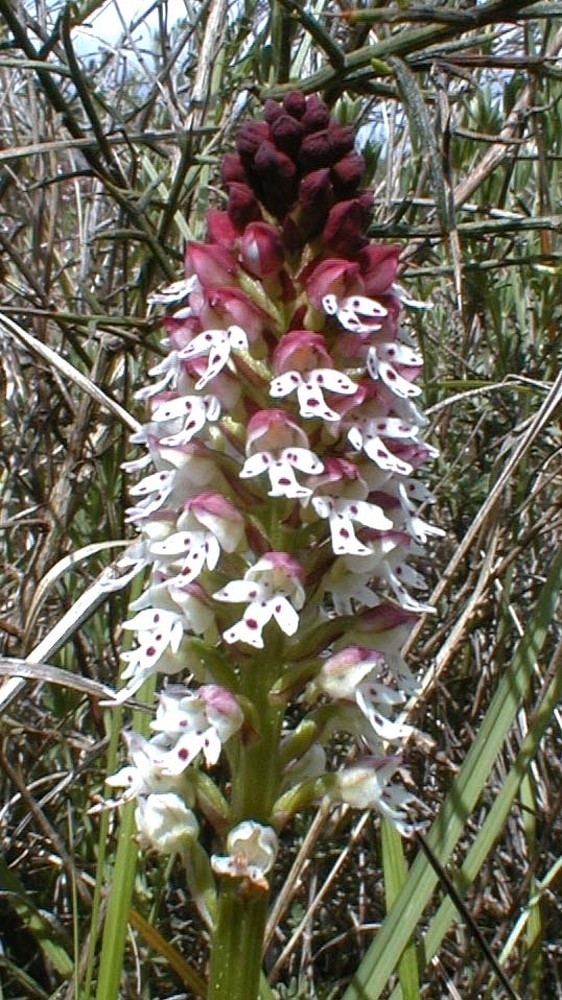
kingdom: Plantae
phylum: Tracheophyta
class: Liliopsida
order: Asparagales
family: Orchidaceae
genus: Neotinea
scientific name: Neotinea ustulata
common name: Burnt orchid
